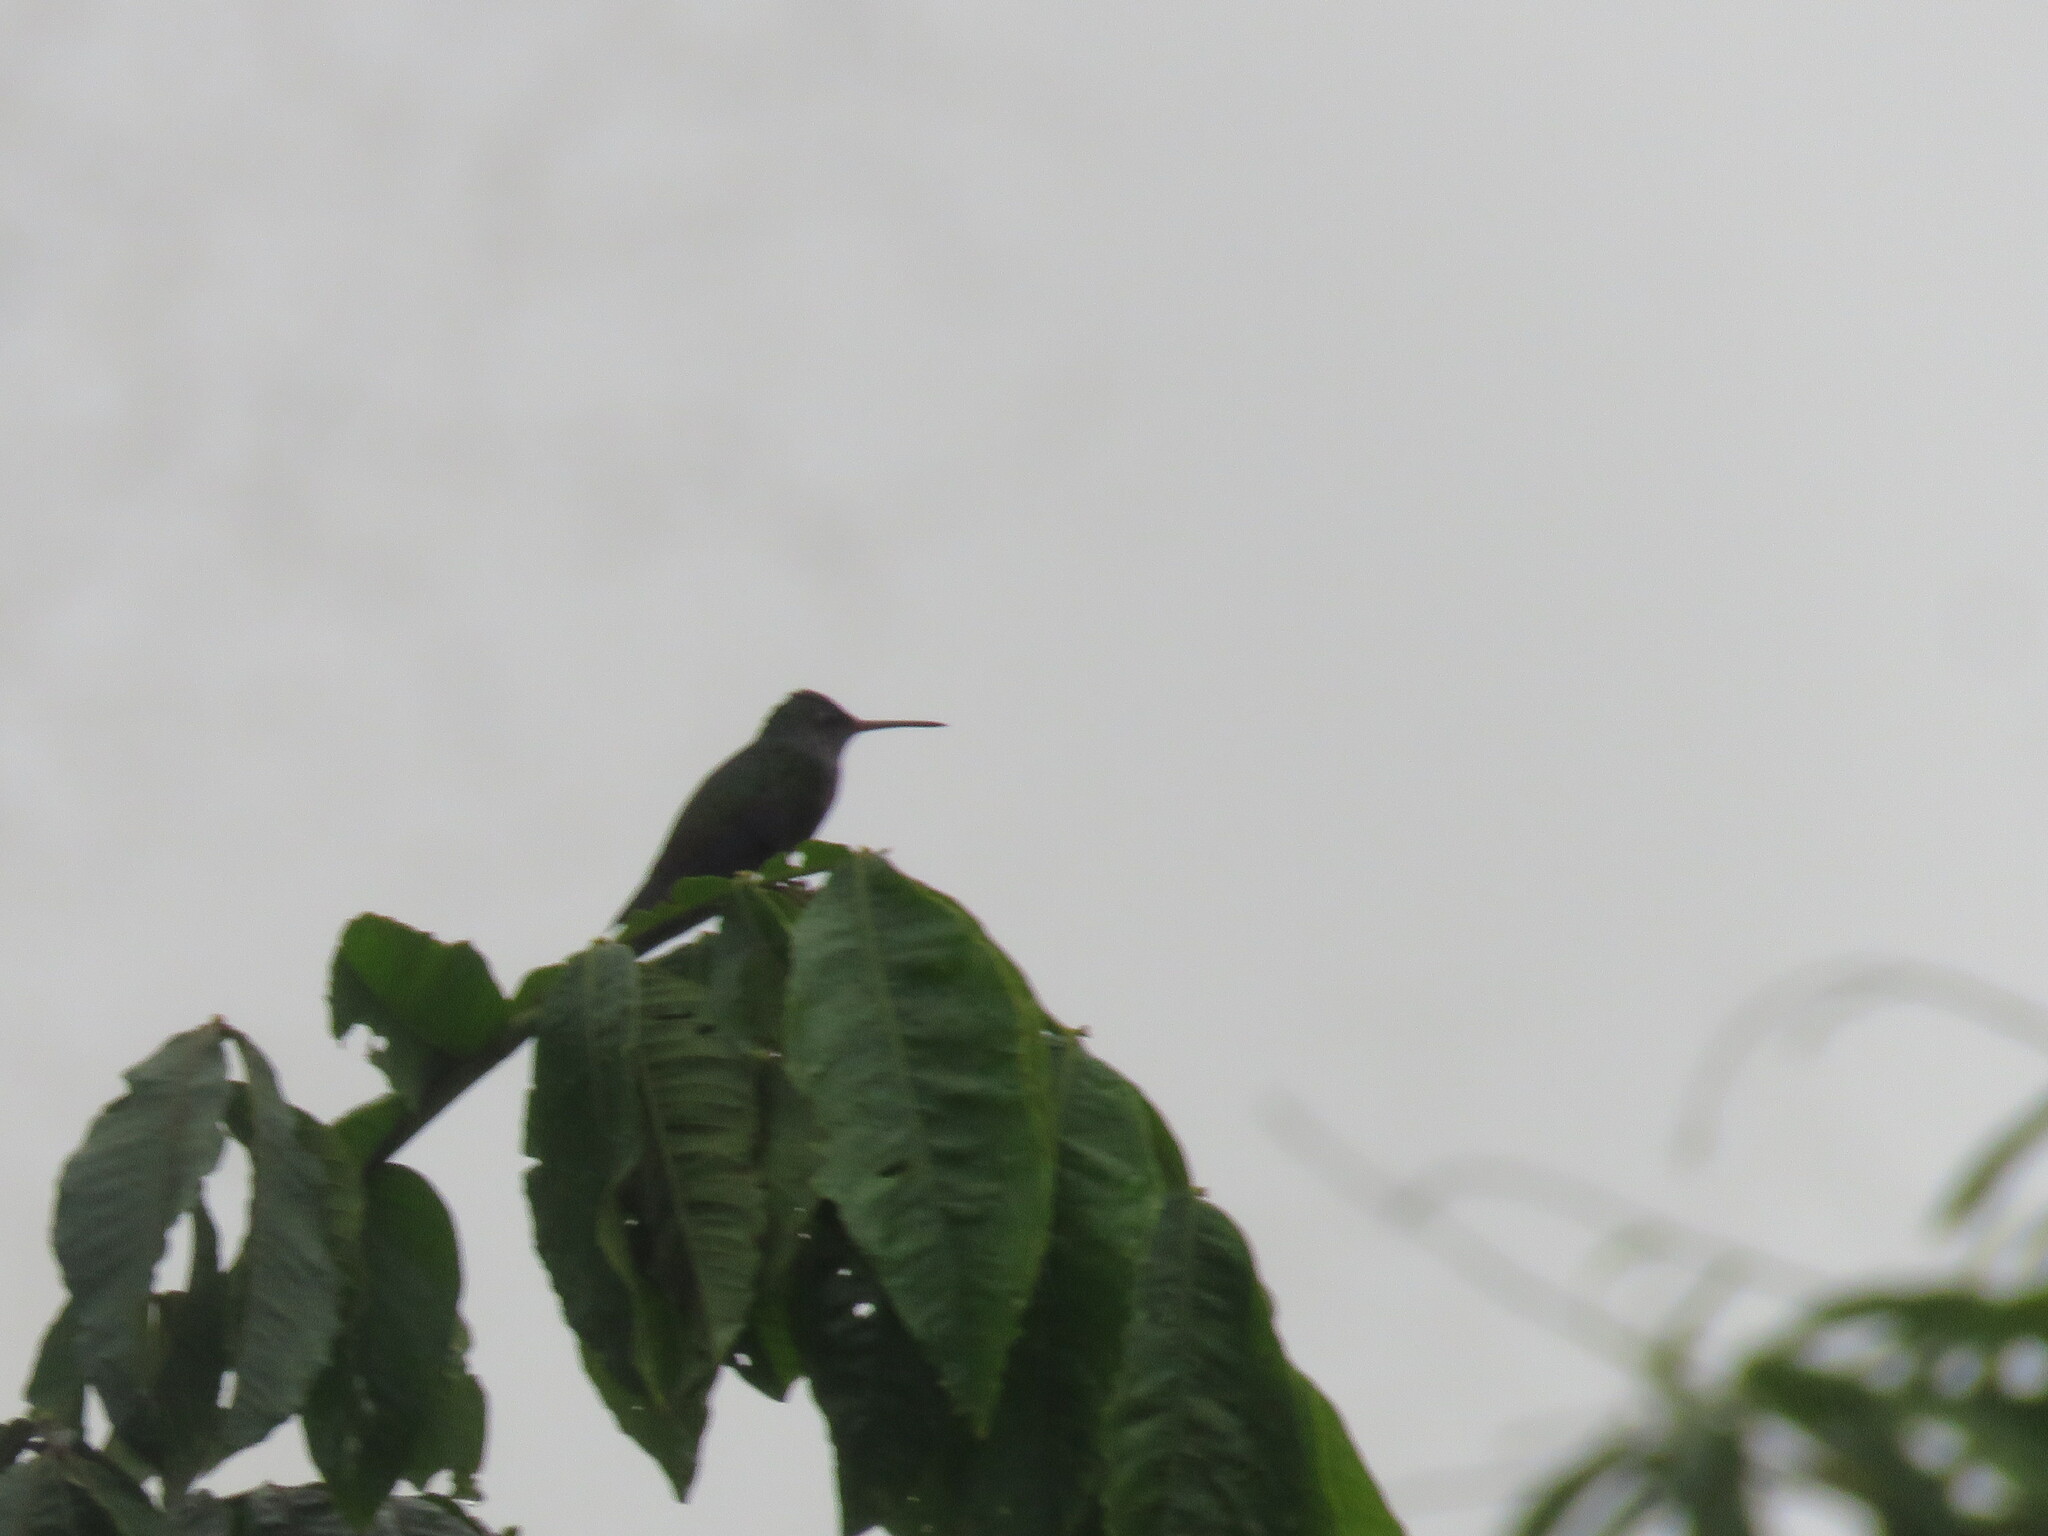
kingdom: Animalia
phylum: Chordata
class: Aves
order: Apodiformes
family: Trochilidae
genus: Chionomesa
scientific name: Chionomesa lactea
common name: Sapphire-spangled emerald
